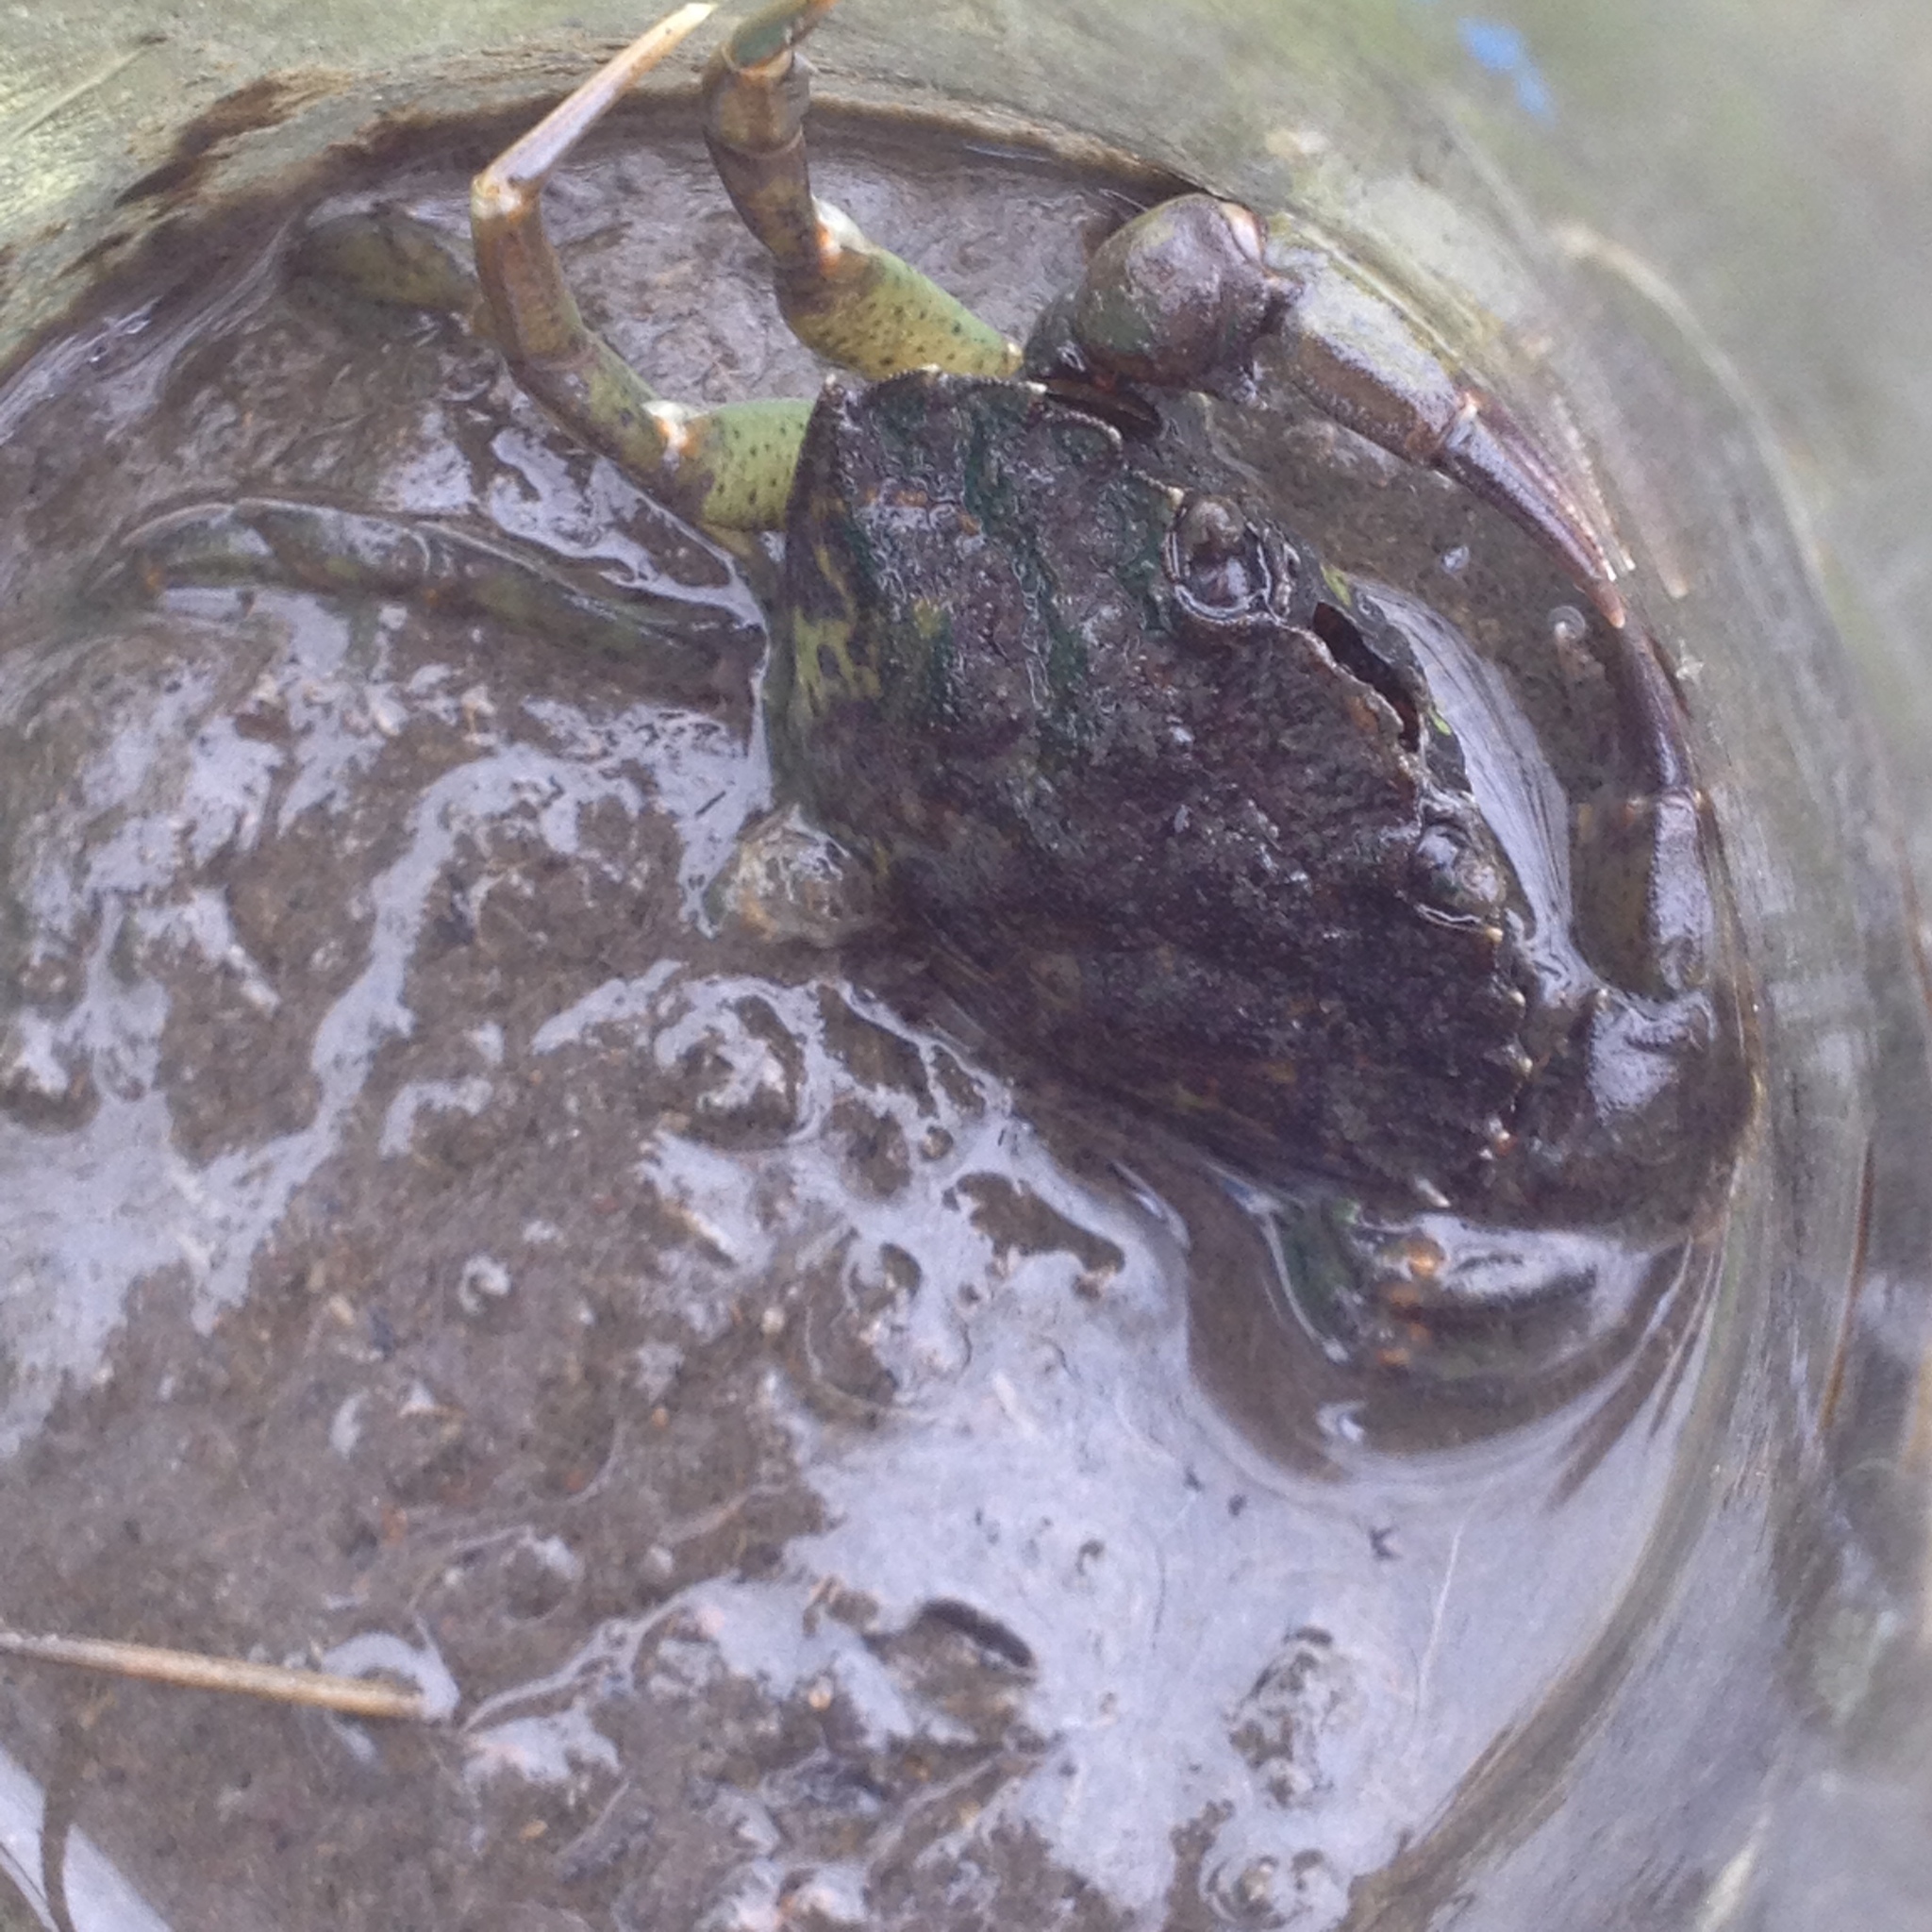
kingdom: Animalia
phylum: Arthropoda
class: Malacostraca
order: Decapoda
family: Carcinidae
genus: Carcinus
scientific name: Carcinus maenas
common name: European green crab
